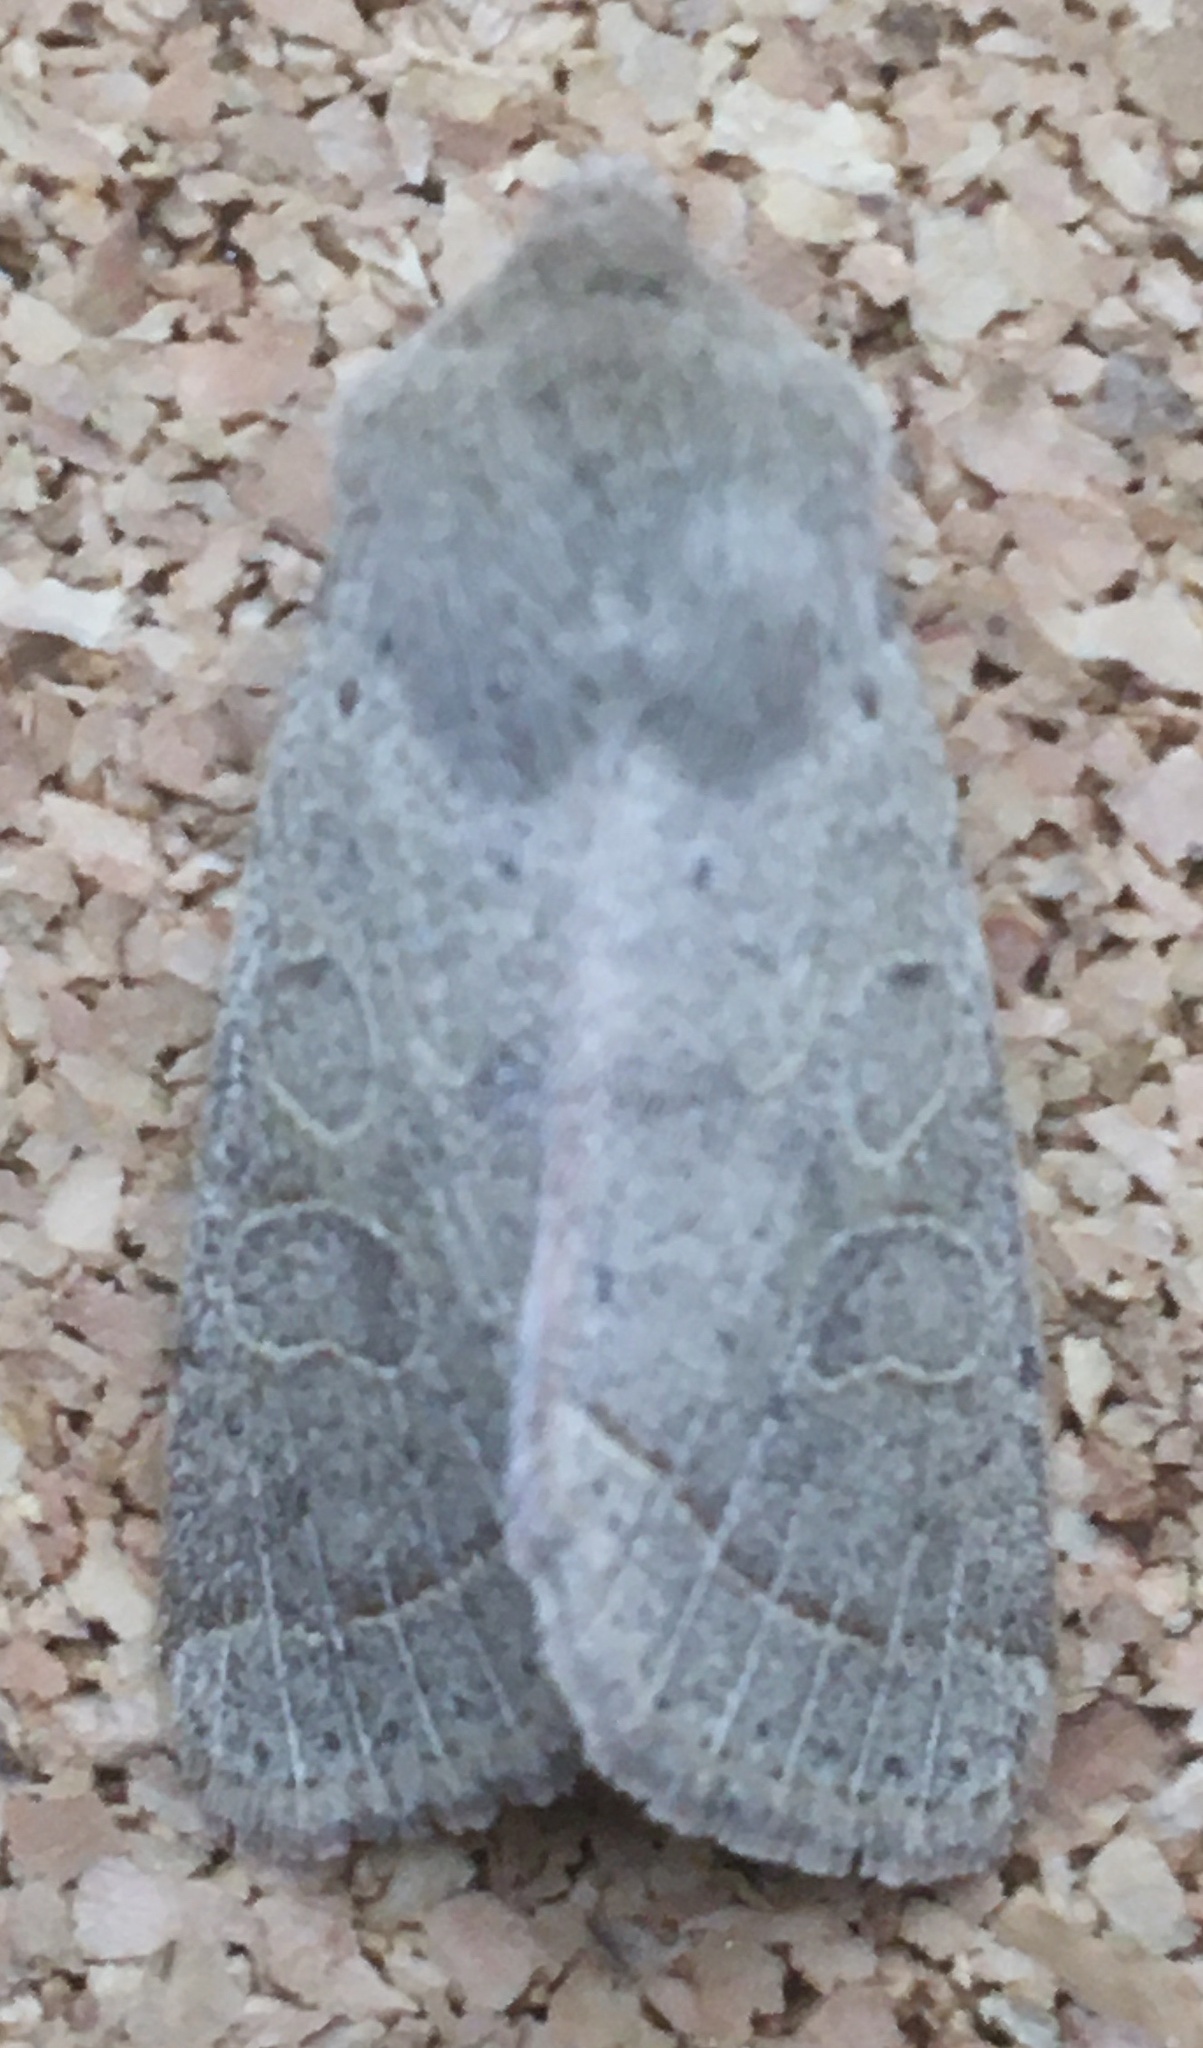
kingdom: Animalia
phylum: Arthropoda
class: Insecta
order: Lepidoptera
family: Noctuidae
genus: Orthosia
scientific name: Orthosia cerasi
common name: Common quaker
